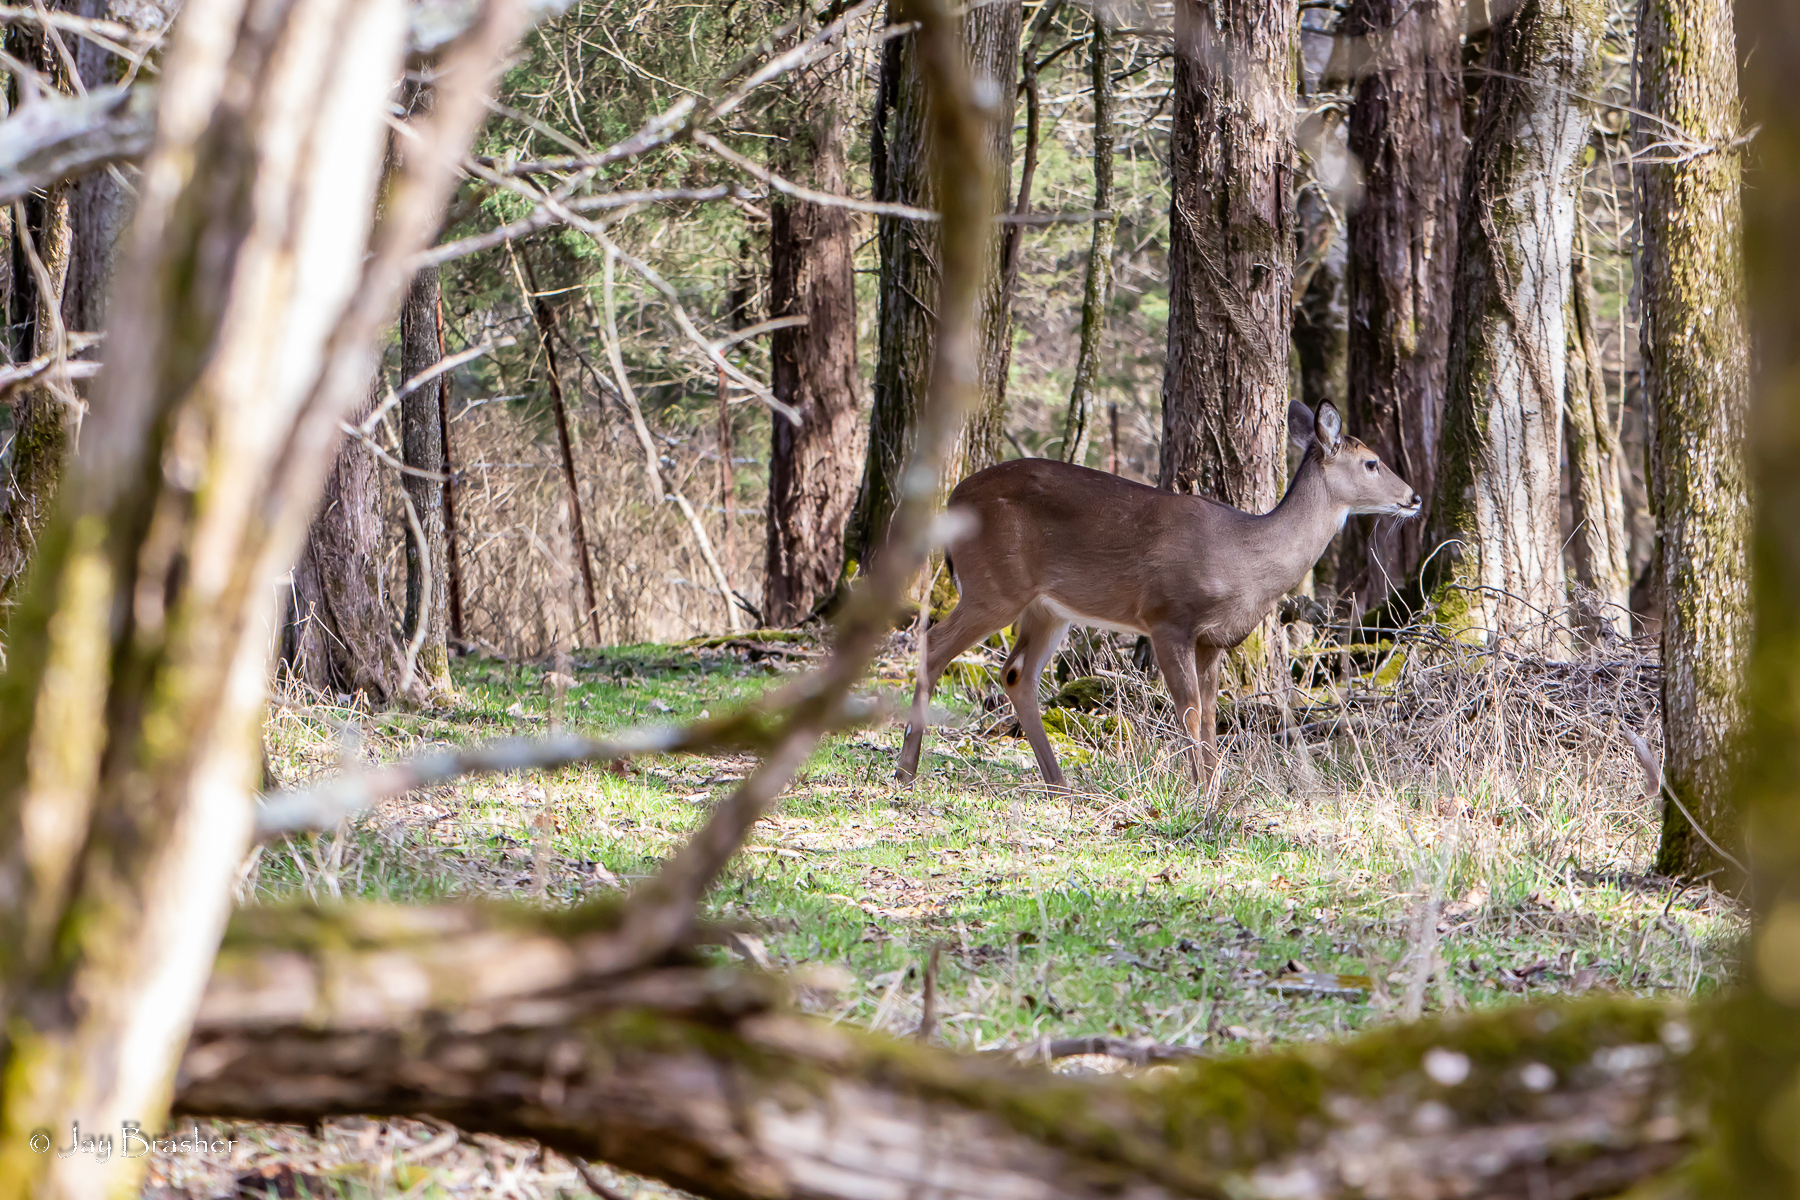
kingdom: Animalia
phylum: Chordata
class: Mammalia
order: Artiodactyla
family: Cervidae
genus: Odocoileus
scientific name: Odocoileus virginianus
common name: White-tailed deer
